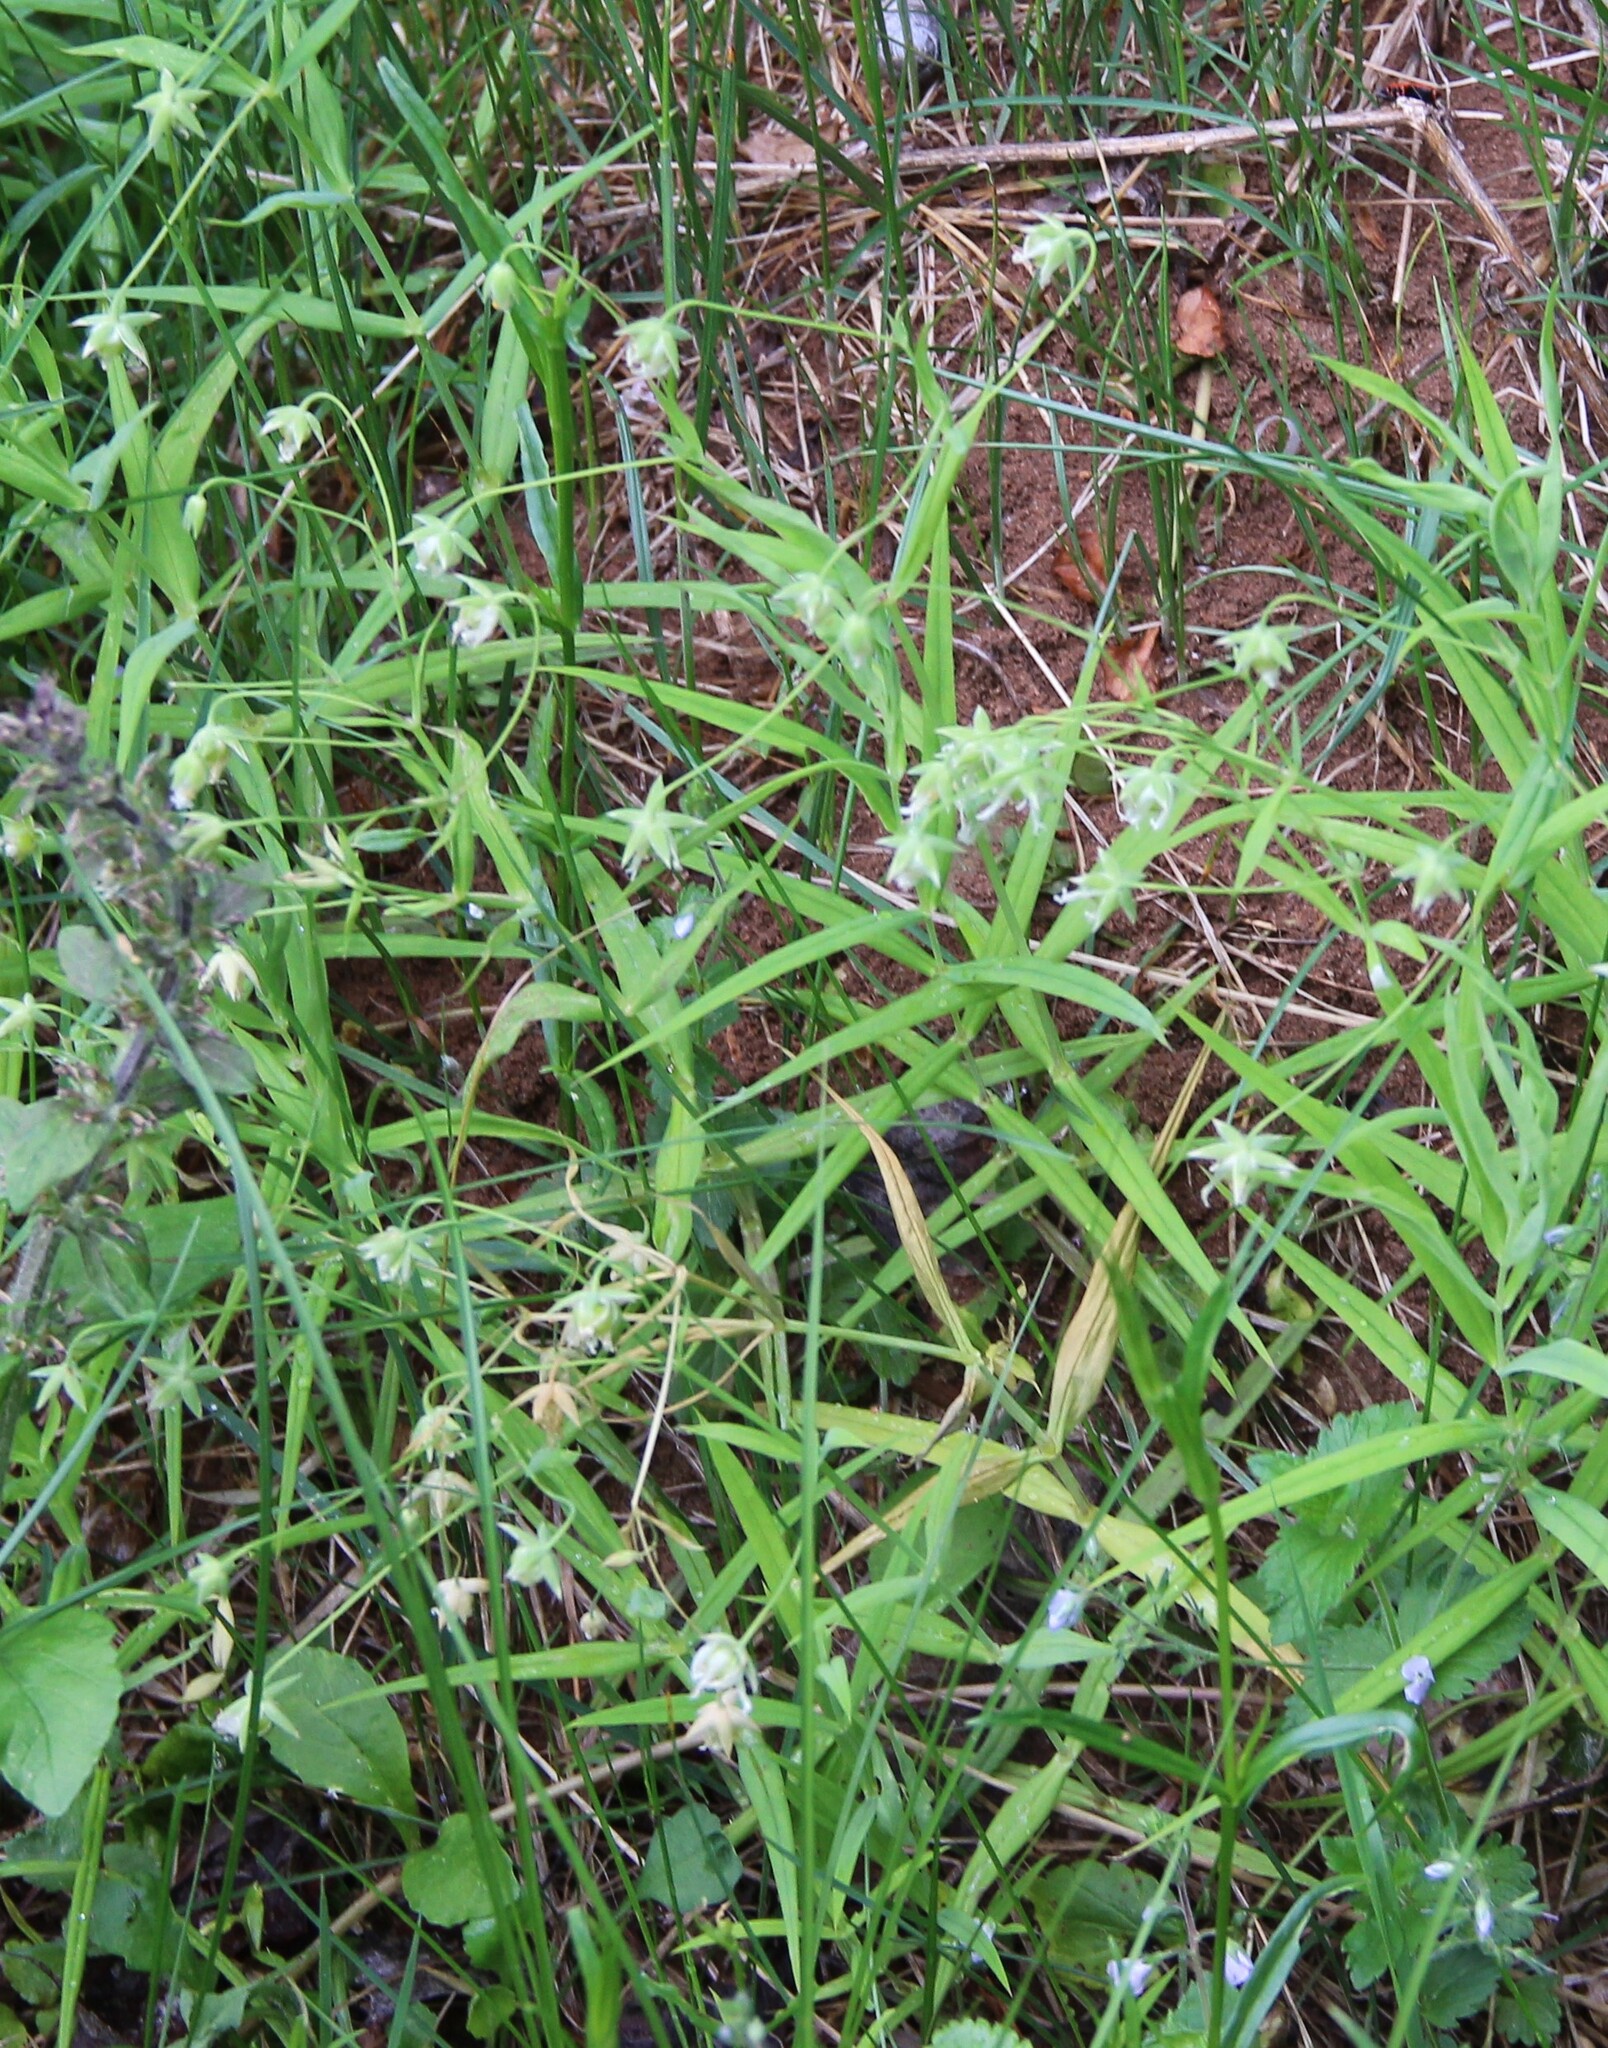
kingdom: Plantae
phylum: Tracheophyta
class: Magnoliopsida
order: Caryophyllales
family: Caryophyllaceae
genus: Rabelera
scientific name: Rabelera holostea
